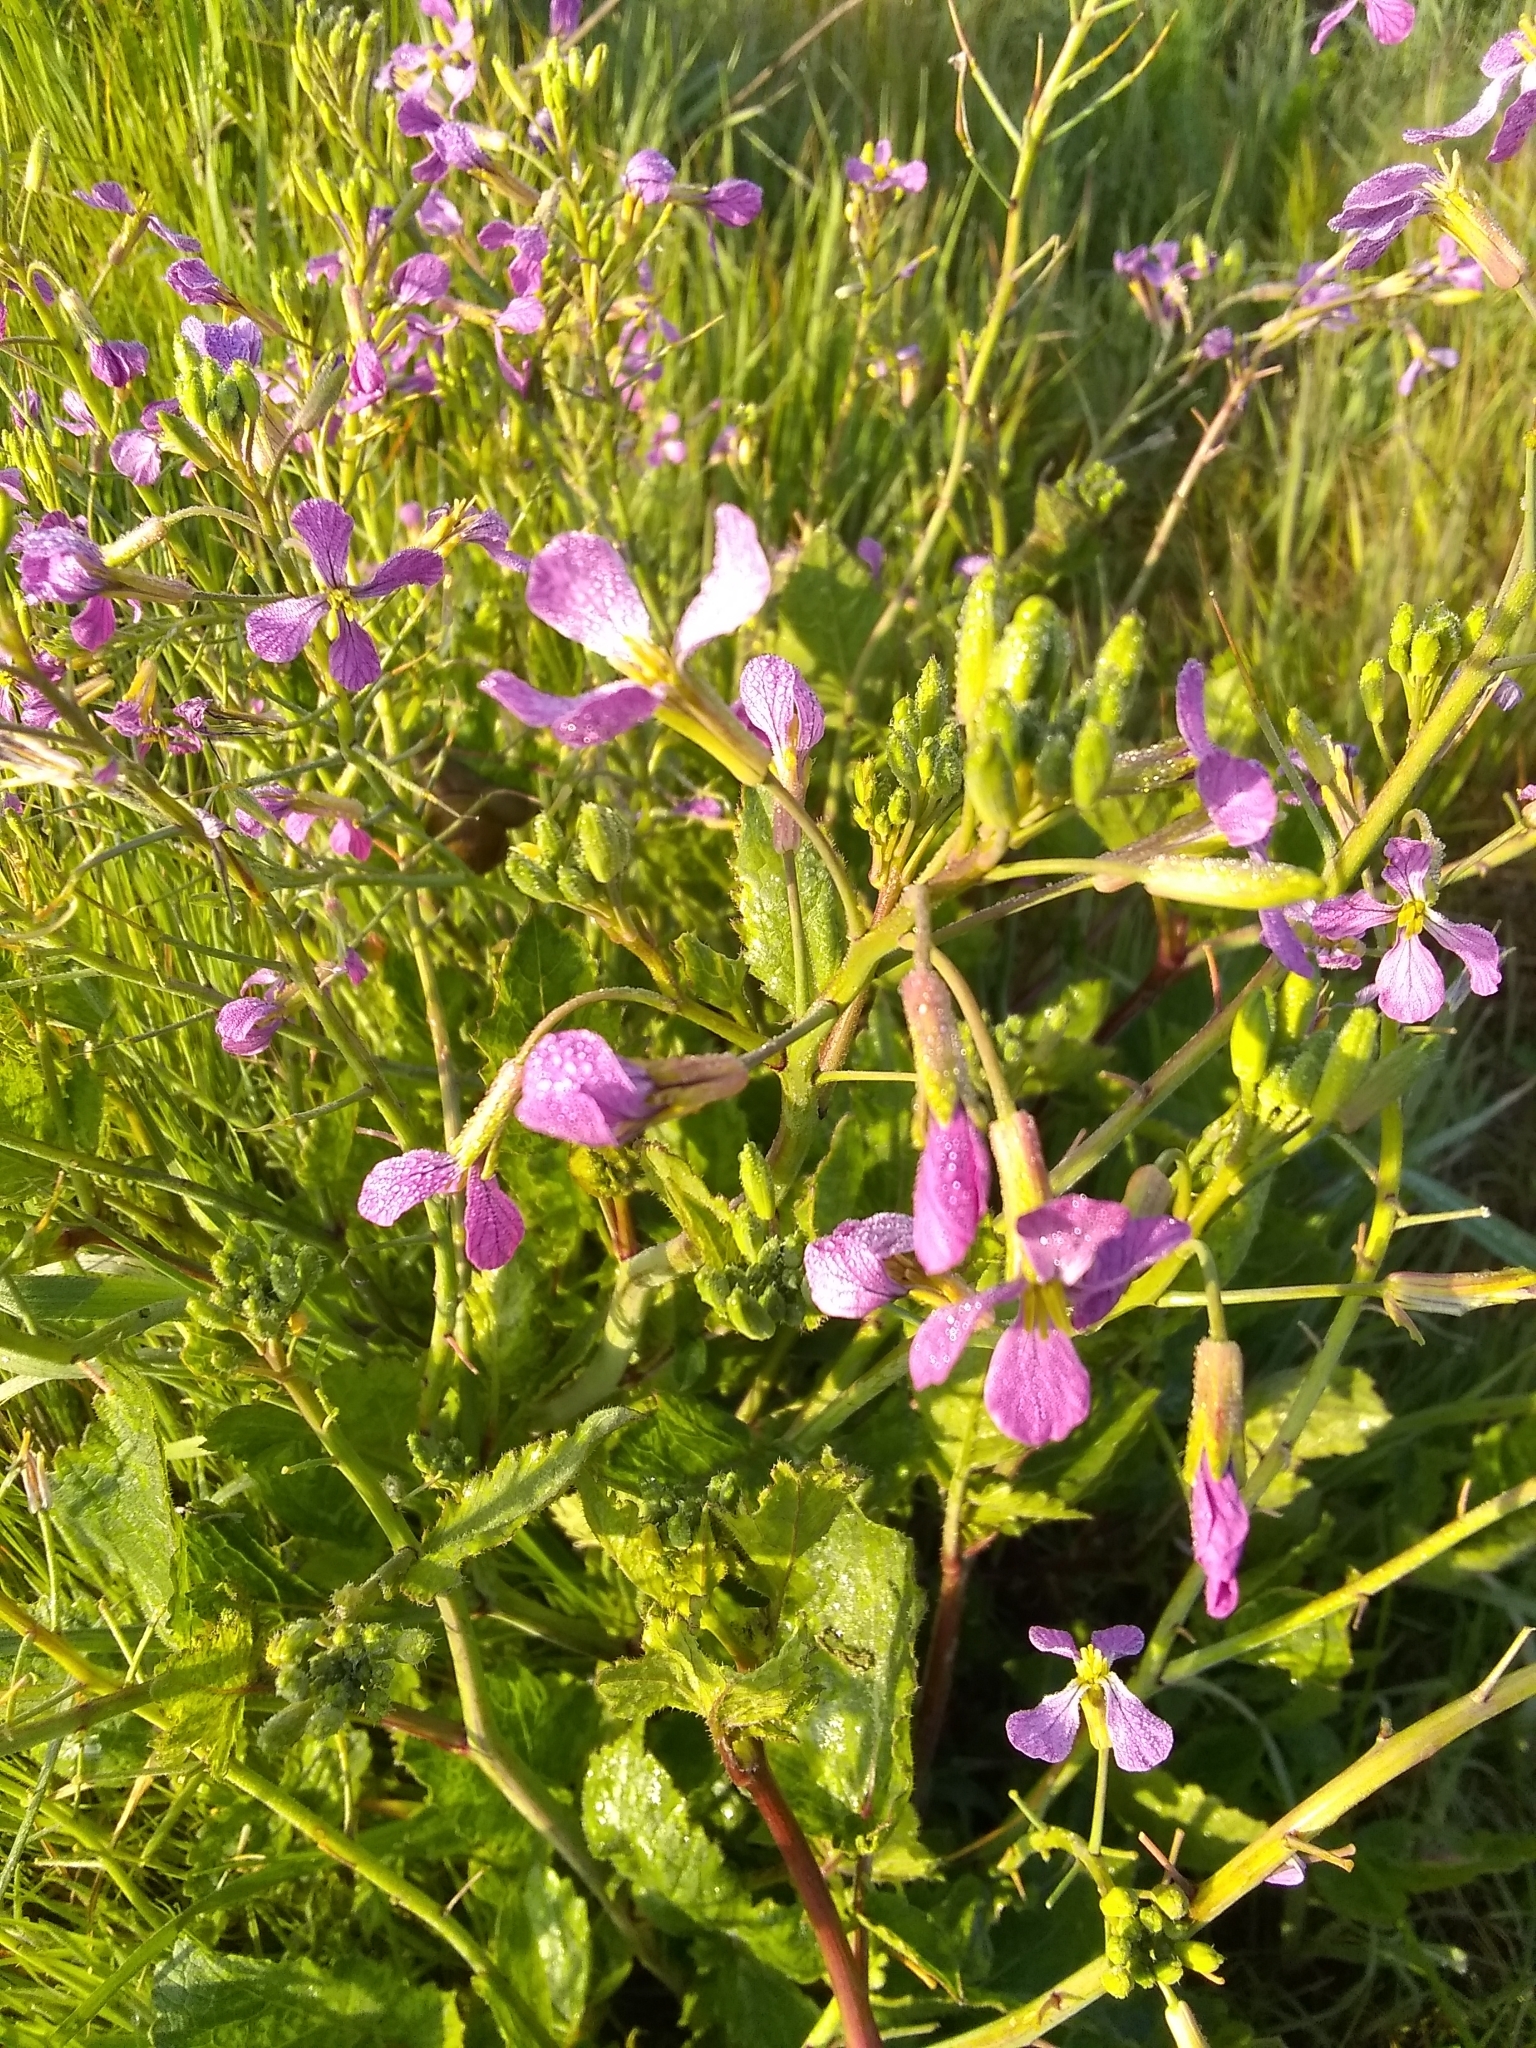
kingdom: Plantae
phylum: Tracheophyta
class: Magnoliopsida
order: Brassicales
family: Brassicaceae
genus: Raphanus
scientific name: Raphanus sativus
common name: Cultivated radish
